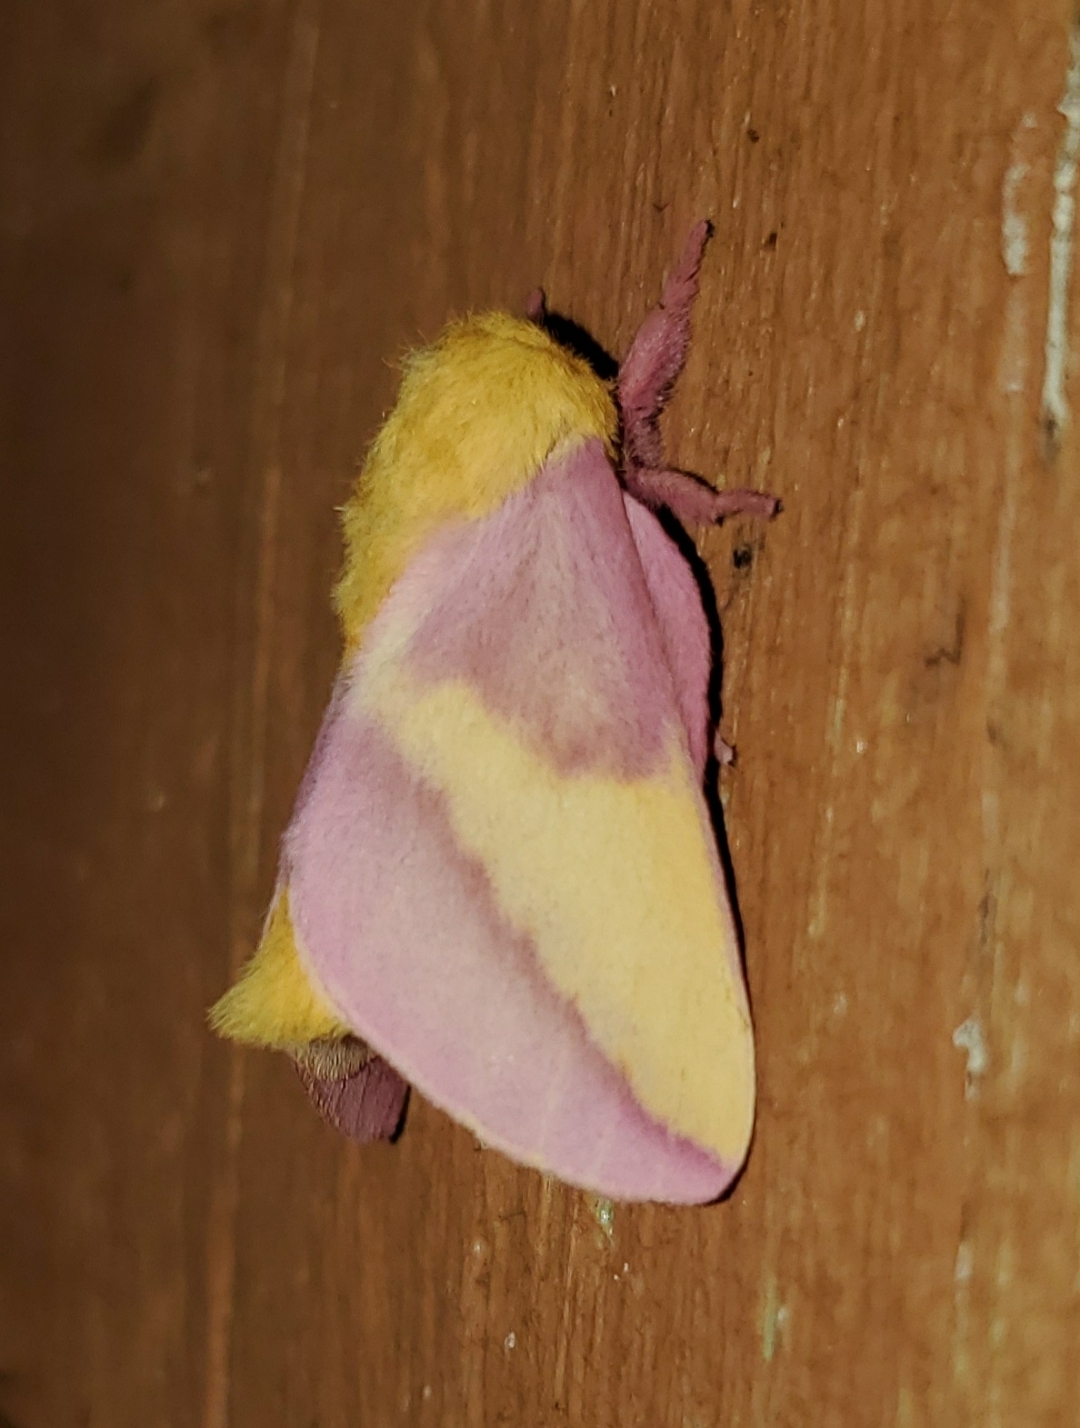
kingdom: Animalia
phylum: Arthropoda
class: Insecta
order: Lepidoptera
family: Saturniidae
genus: Dryocampa
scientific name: Dryocampa rubicunda
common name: Rosy maple moth
